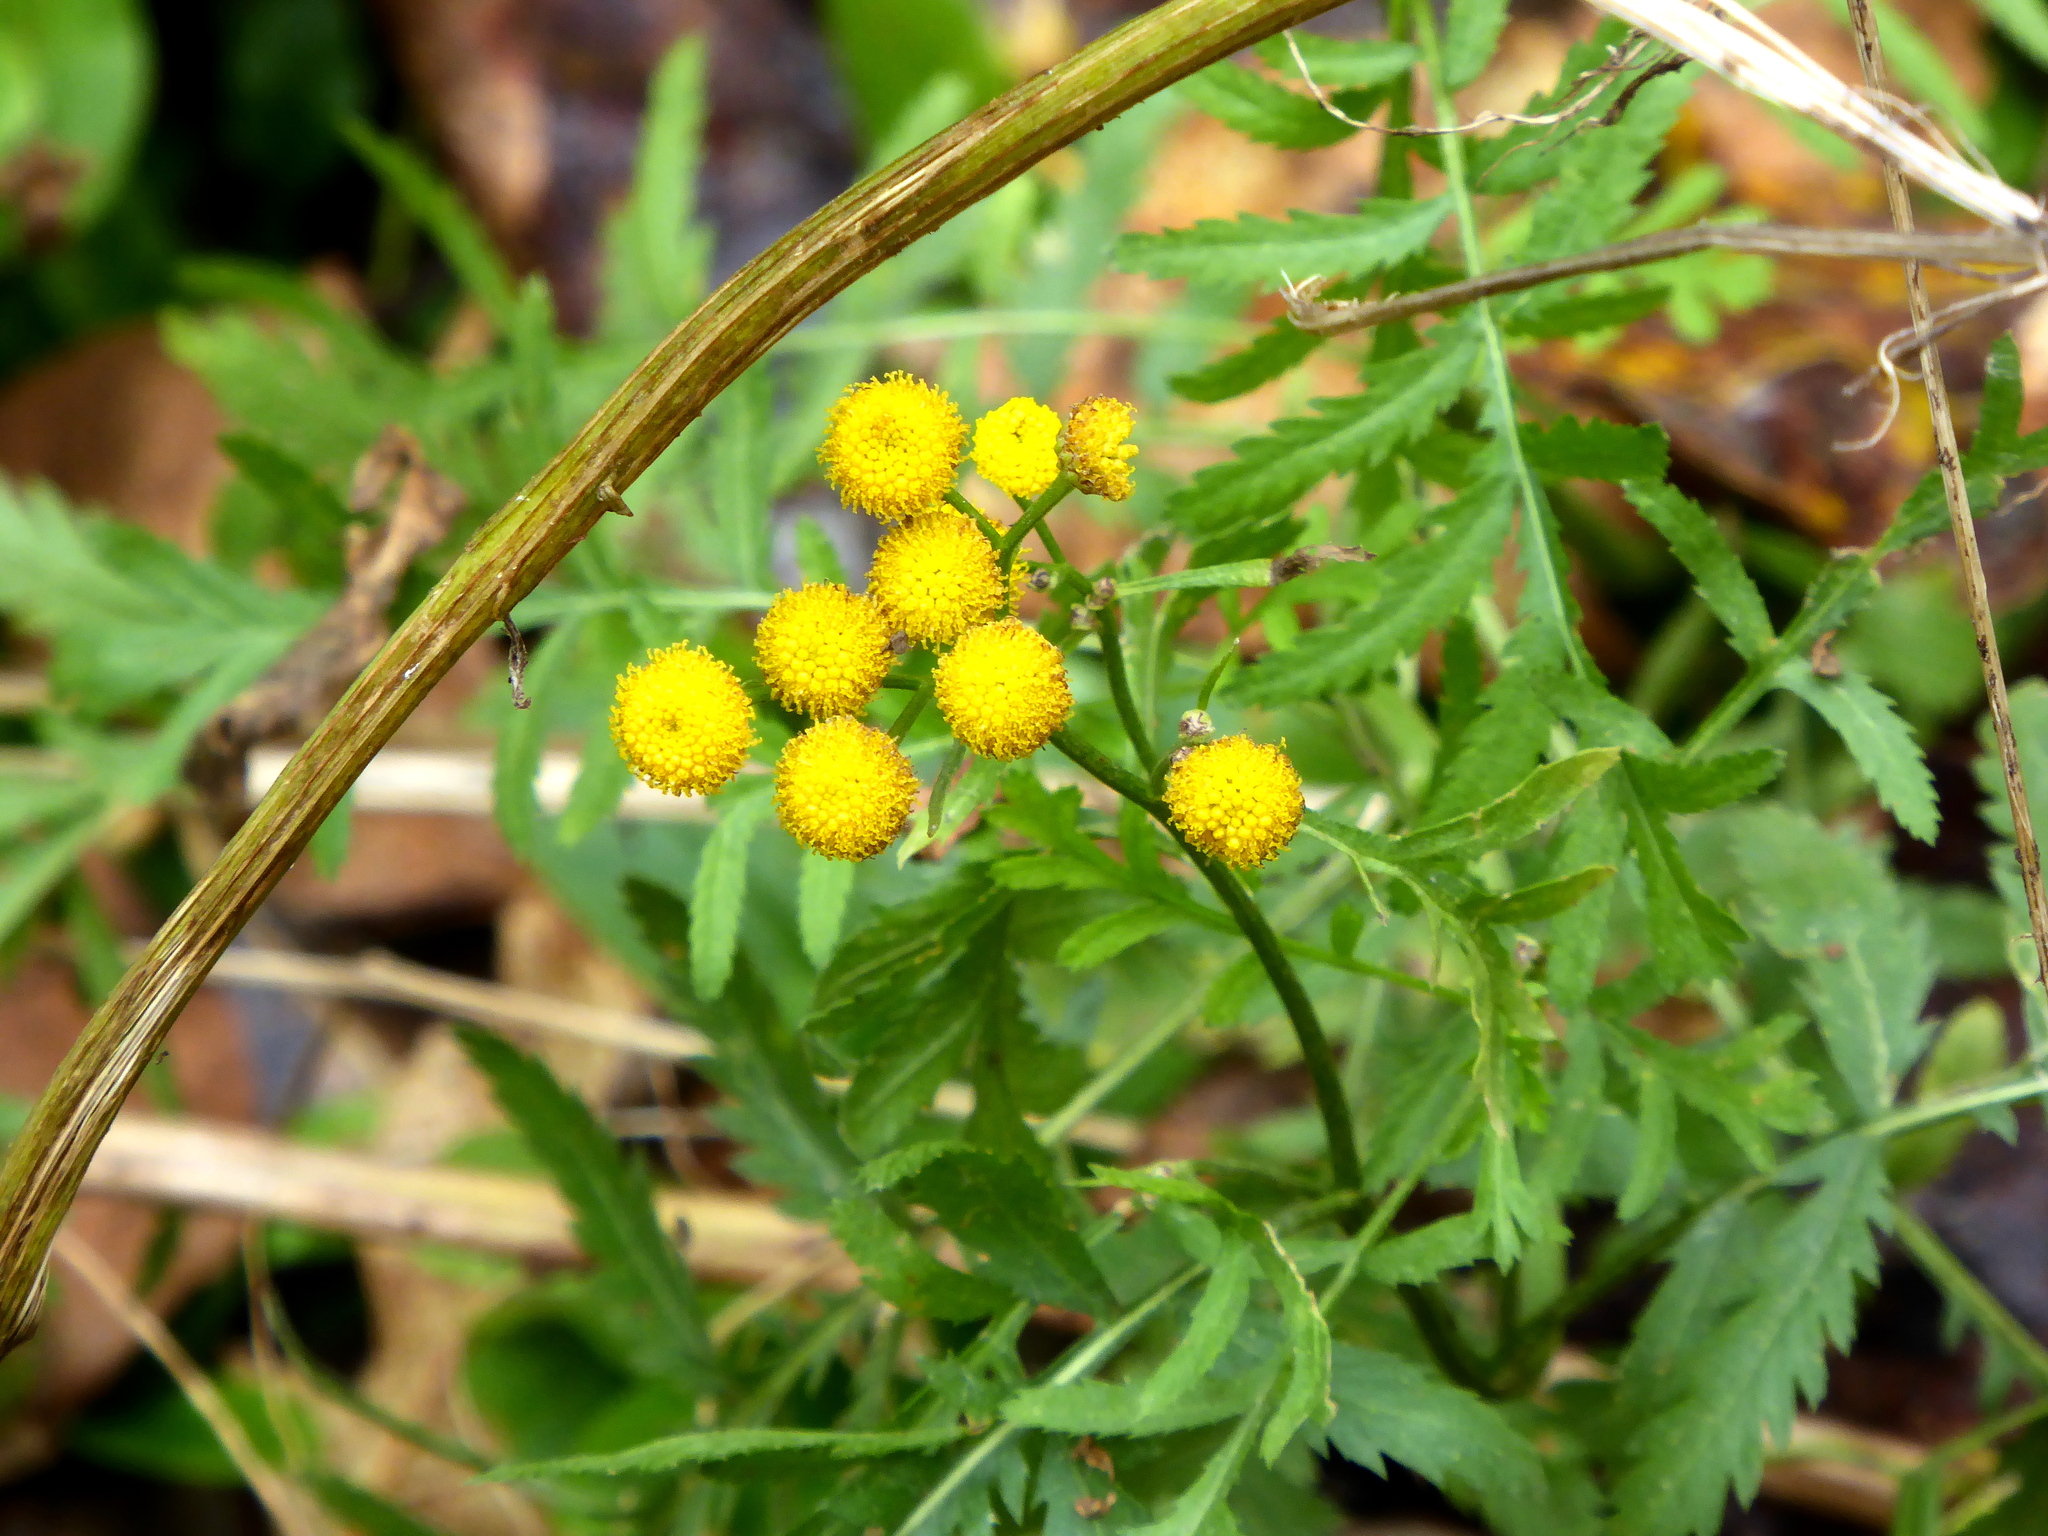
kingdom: Plantae
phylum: Tracheophyta
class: Magnoliopsida
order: Asterales
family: Asteraceae
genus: Tanacetum
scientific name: Tanacetum vulgare
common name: Common tansy
